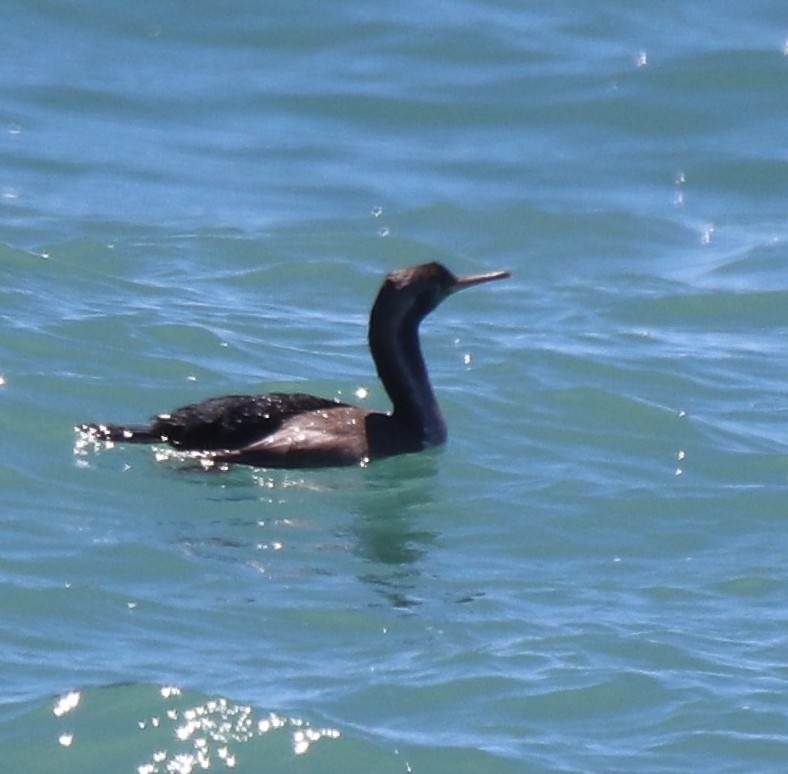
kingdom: Animalia
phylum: Chordata
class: Aves
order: Suliformes
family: Phalacrocoracidae
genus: Phalacrocorax
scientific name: Phalacrocorax punctatus
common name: Spotted shag
